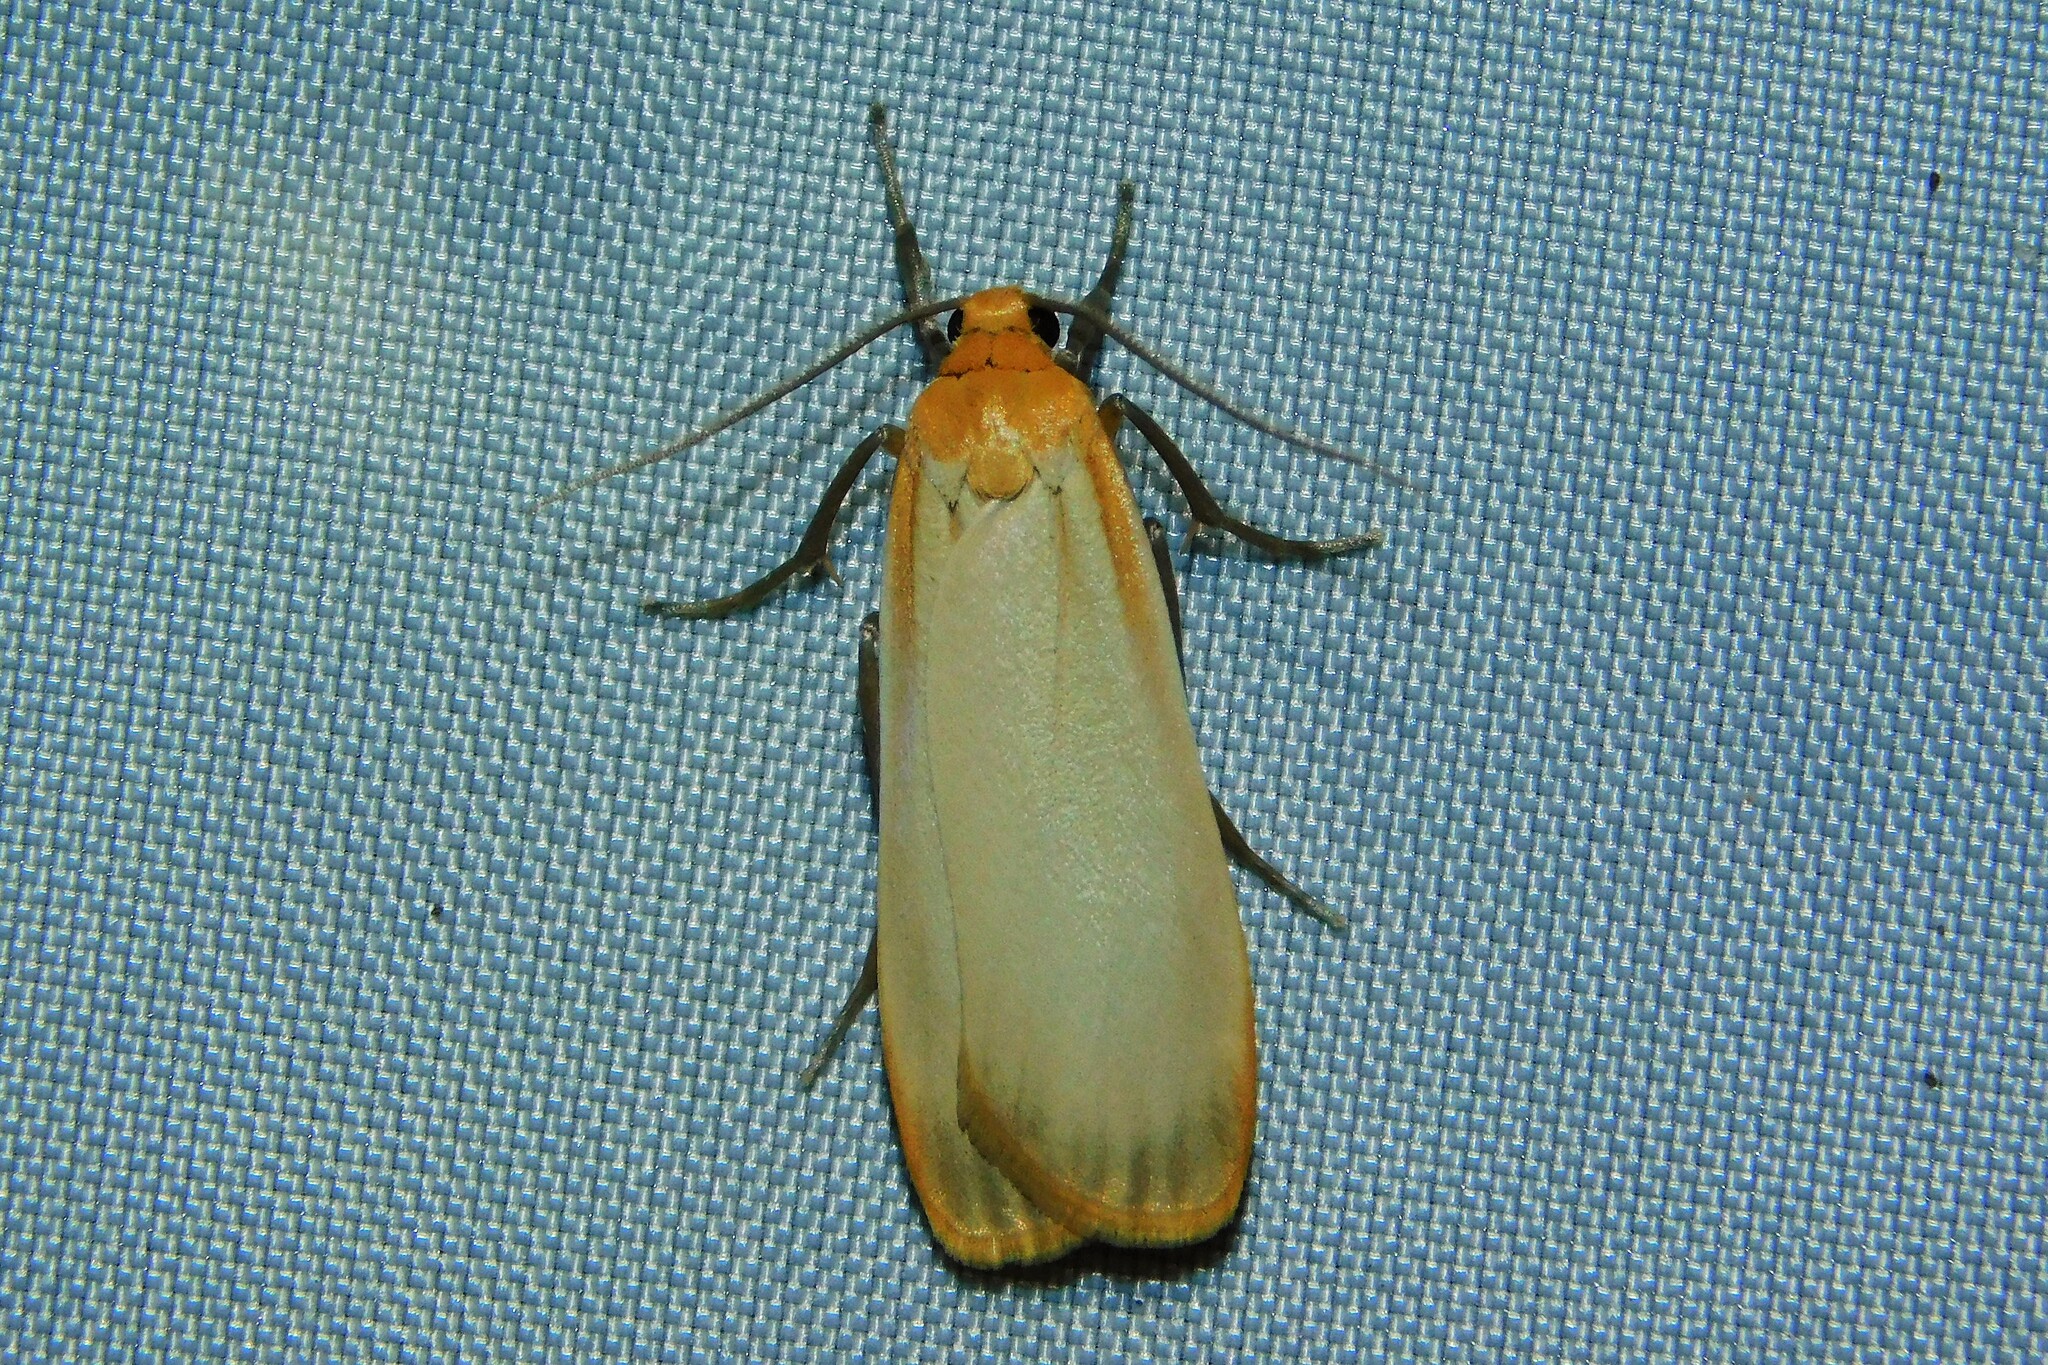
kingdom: Animalia
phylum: Arthropoda
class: Insecta
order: Lepidoptera
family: Erebidae
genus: Katha
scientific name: Katha depressa
